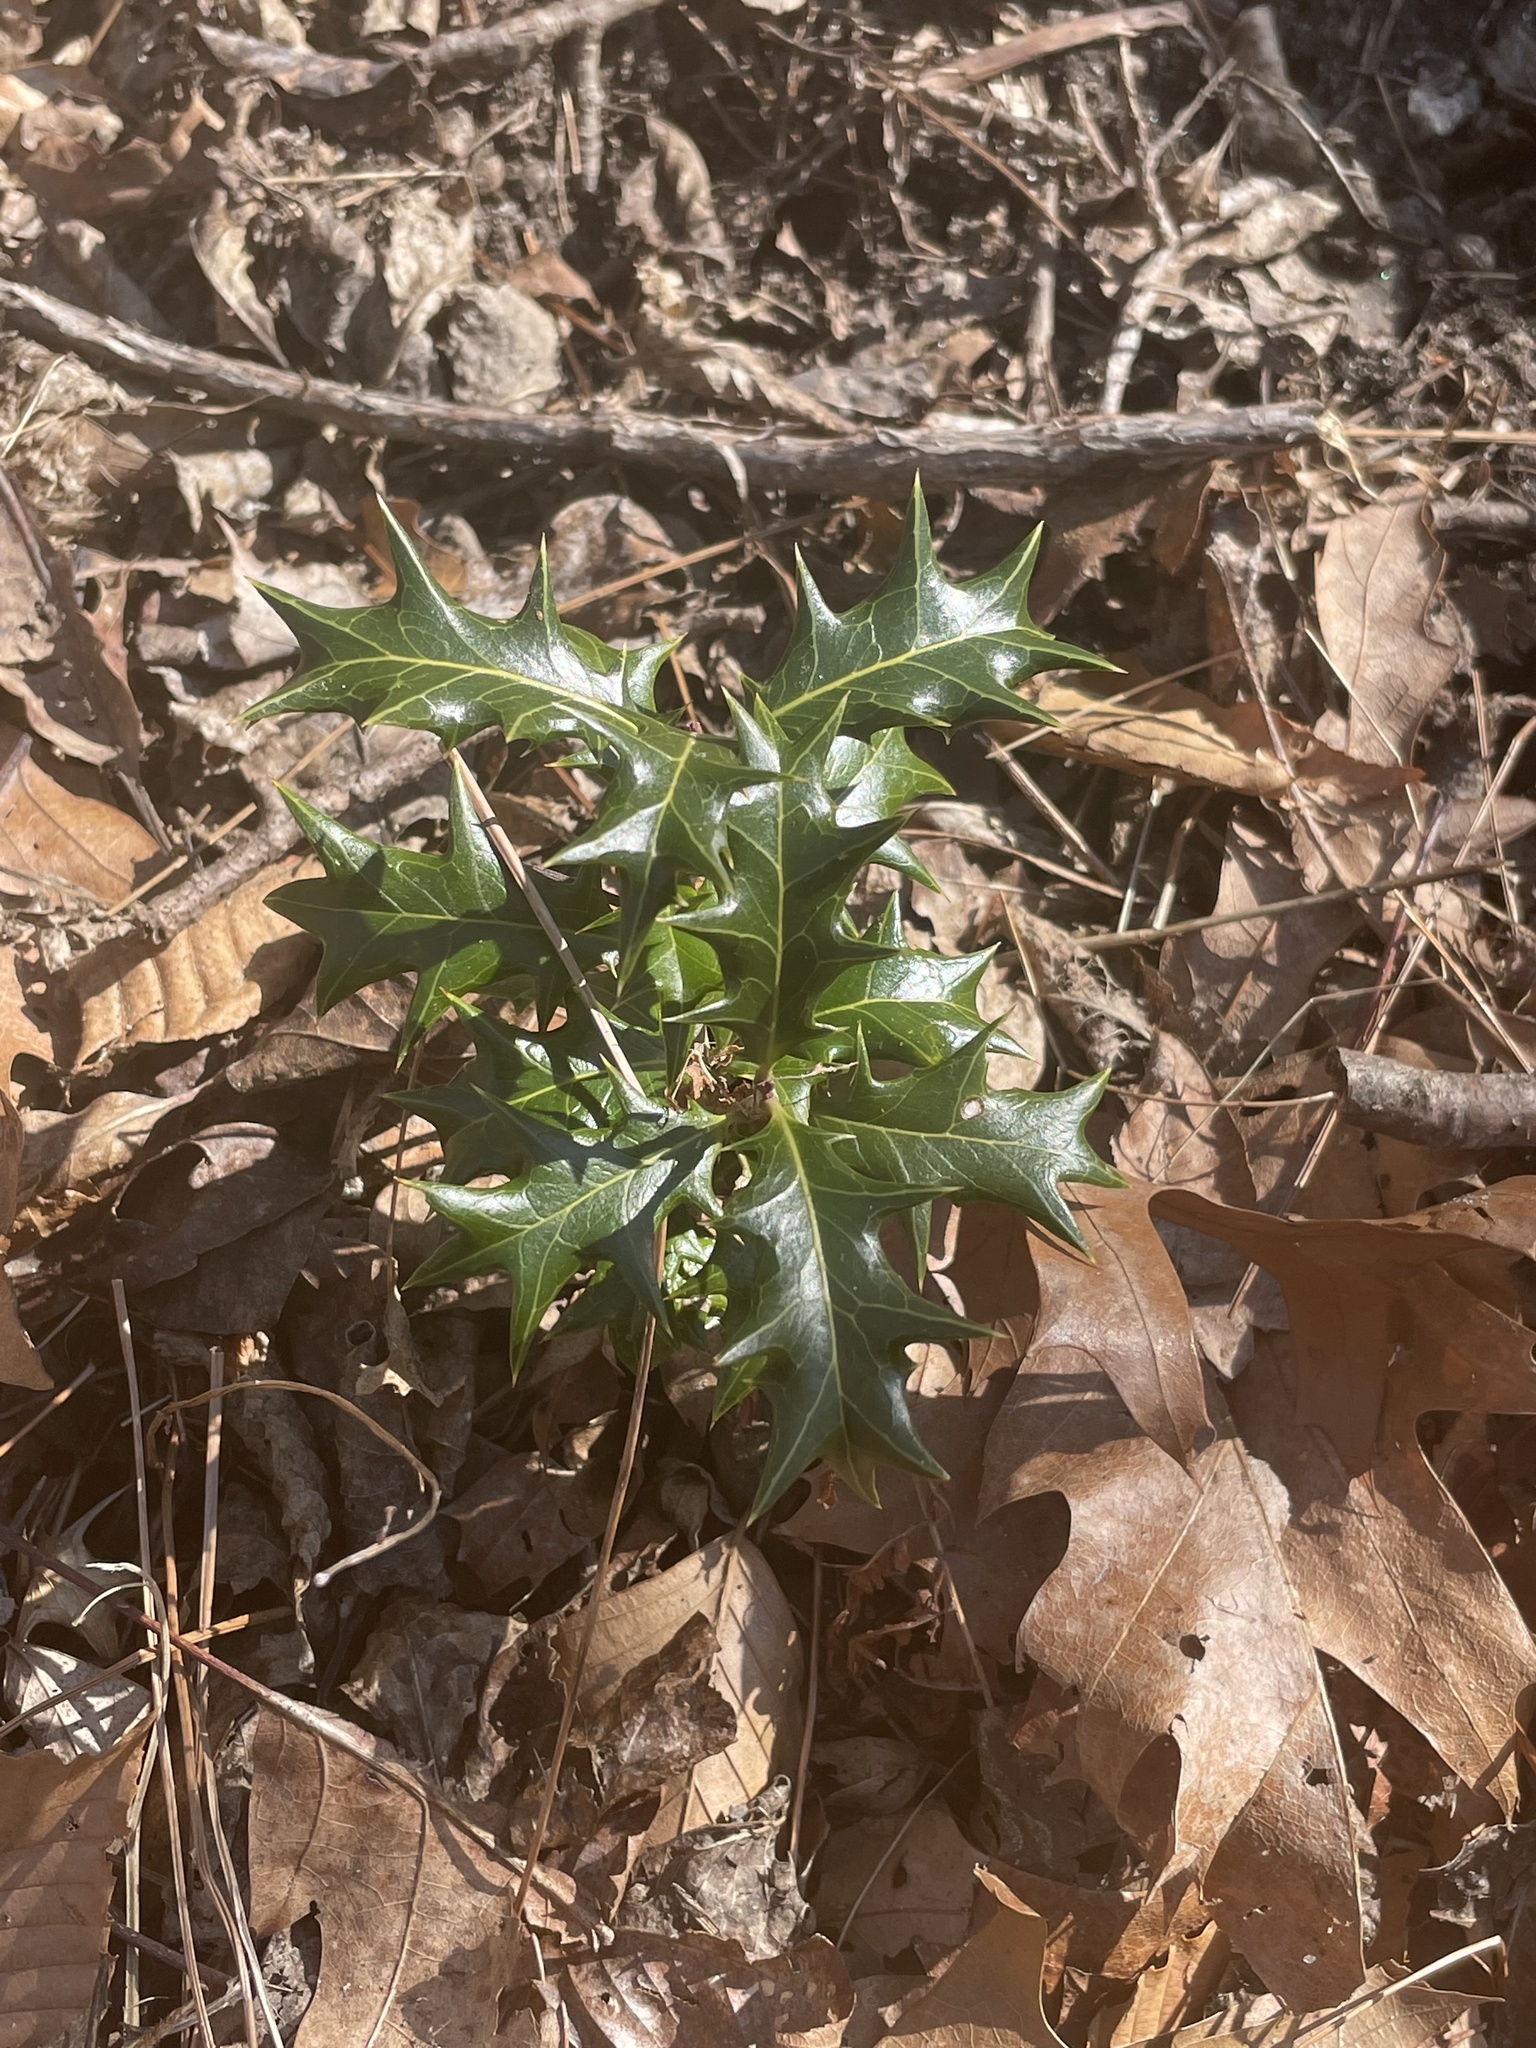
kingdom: Plantae
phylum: Tracheophyta
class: Magnoliopsida
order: Lamiales
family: Oleaceae
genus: Osmanthus
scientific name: Osmanthus heterophyllus
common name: Holly osmanthus
